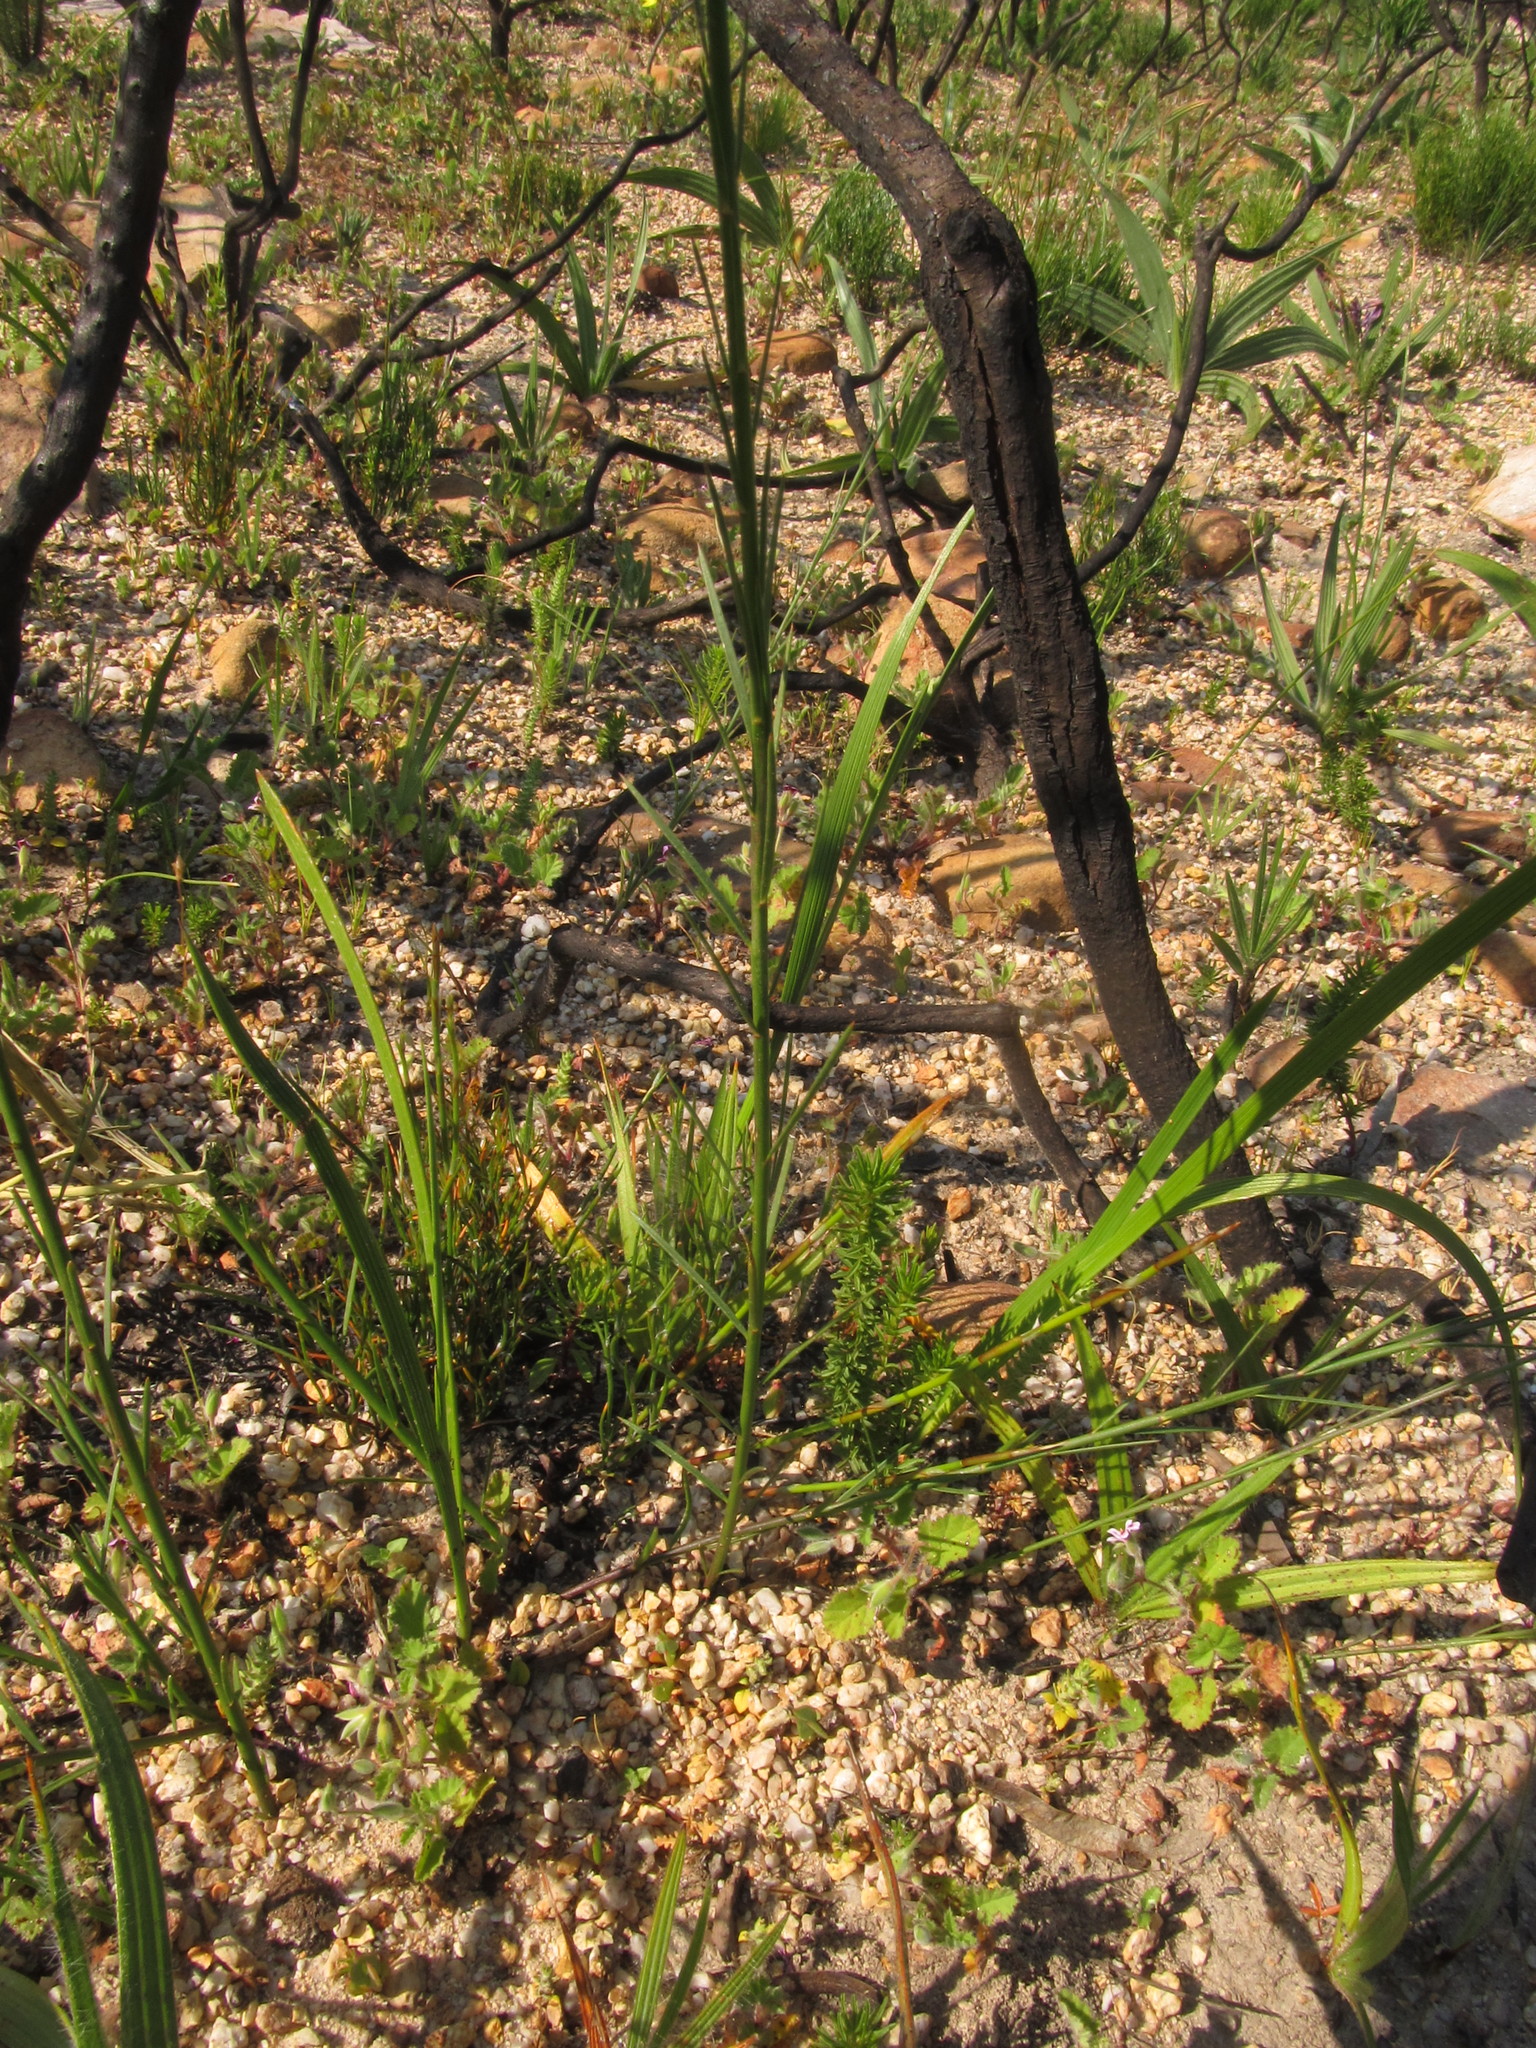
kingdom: Plantae
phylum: Tracheophyta
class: Magnoliopsida
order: Fabales
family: Polygalaceae
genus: Polygala
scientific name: Polygala garcini
